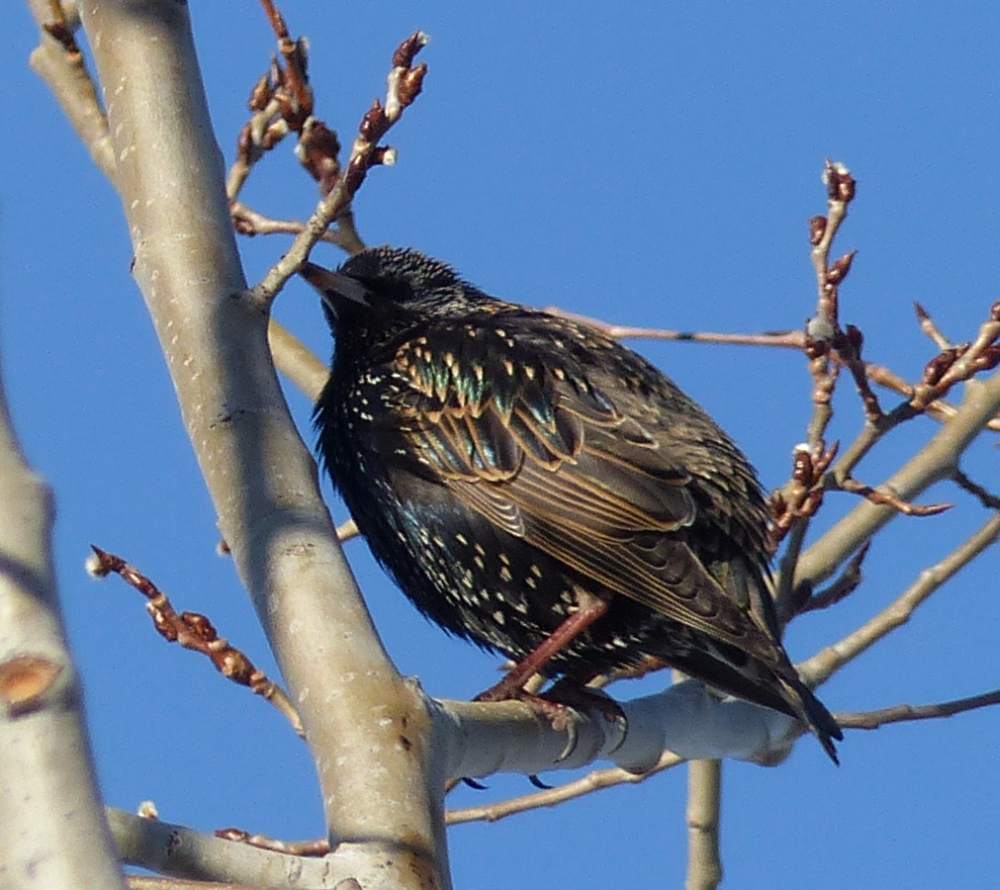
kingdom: Animalia
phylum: Chordata
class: Aves
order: Passeriformes
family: Sturnidae
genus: Sturnus
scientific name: Sturnus vulgaris
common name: Common starling
